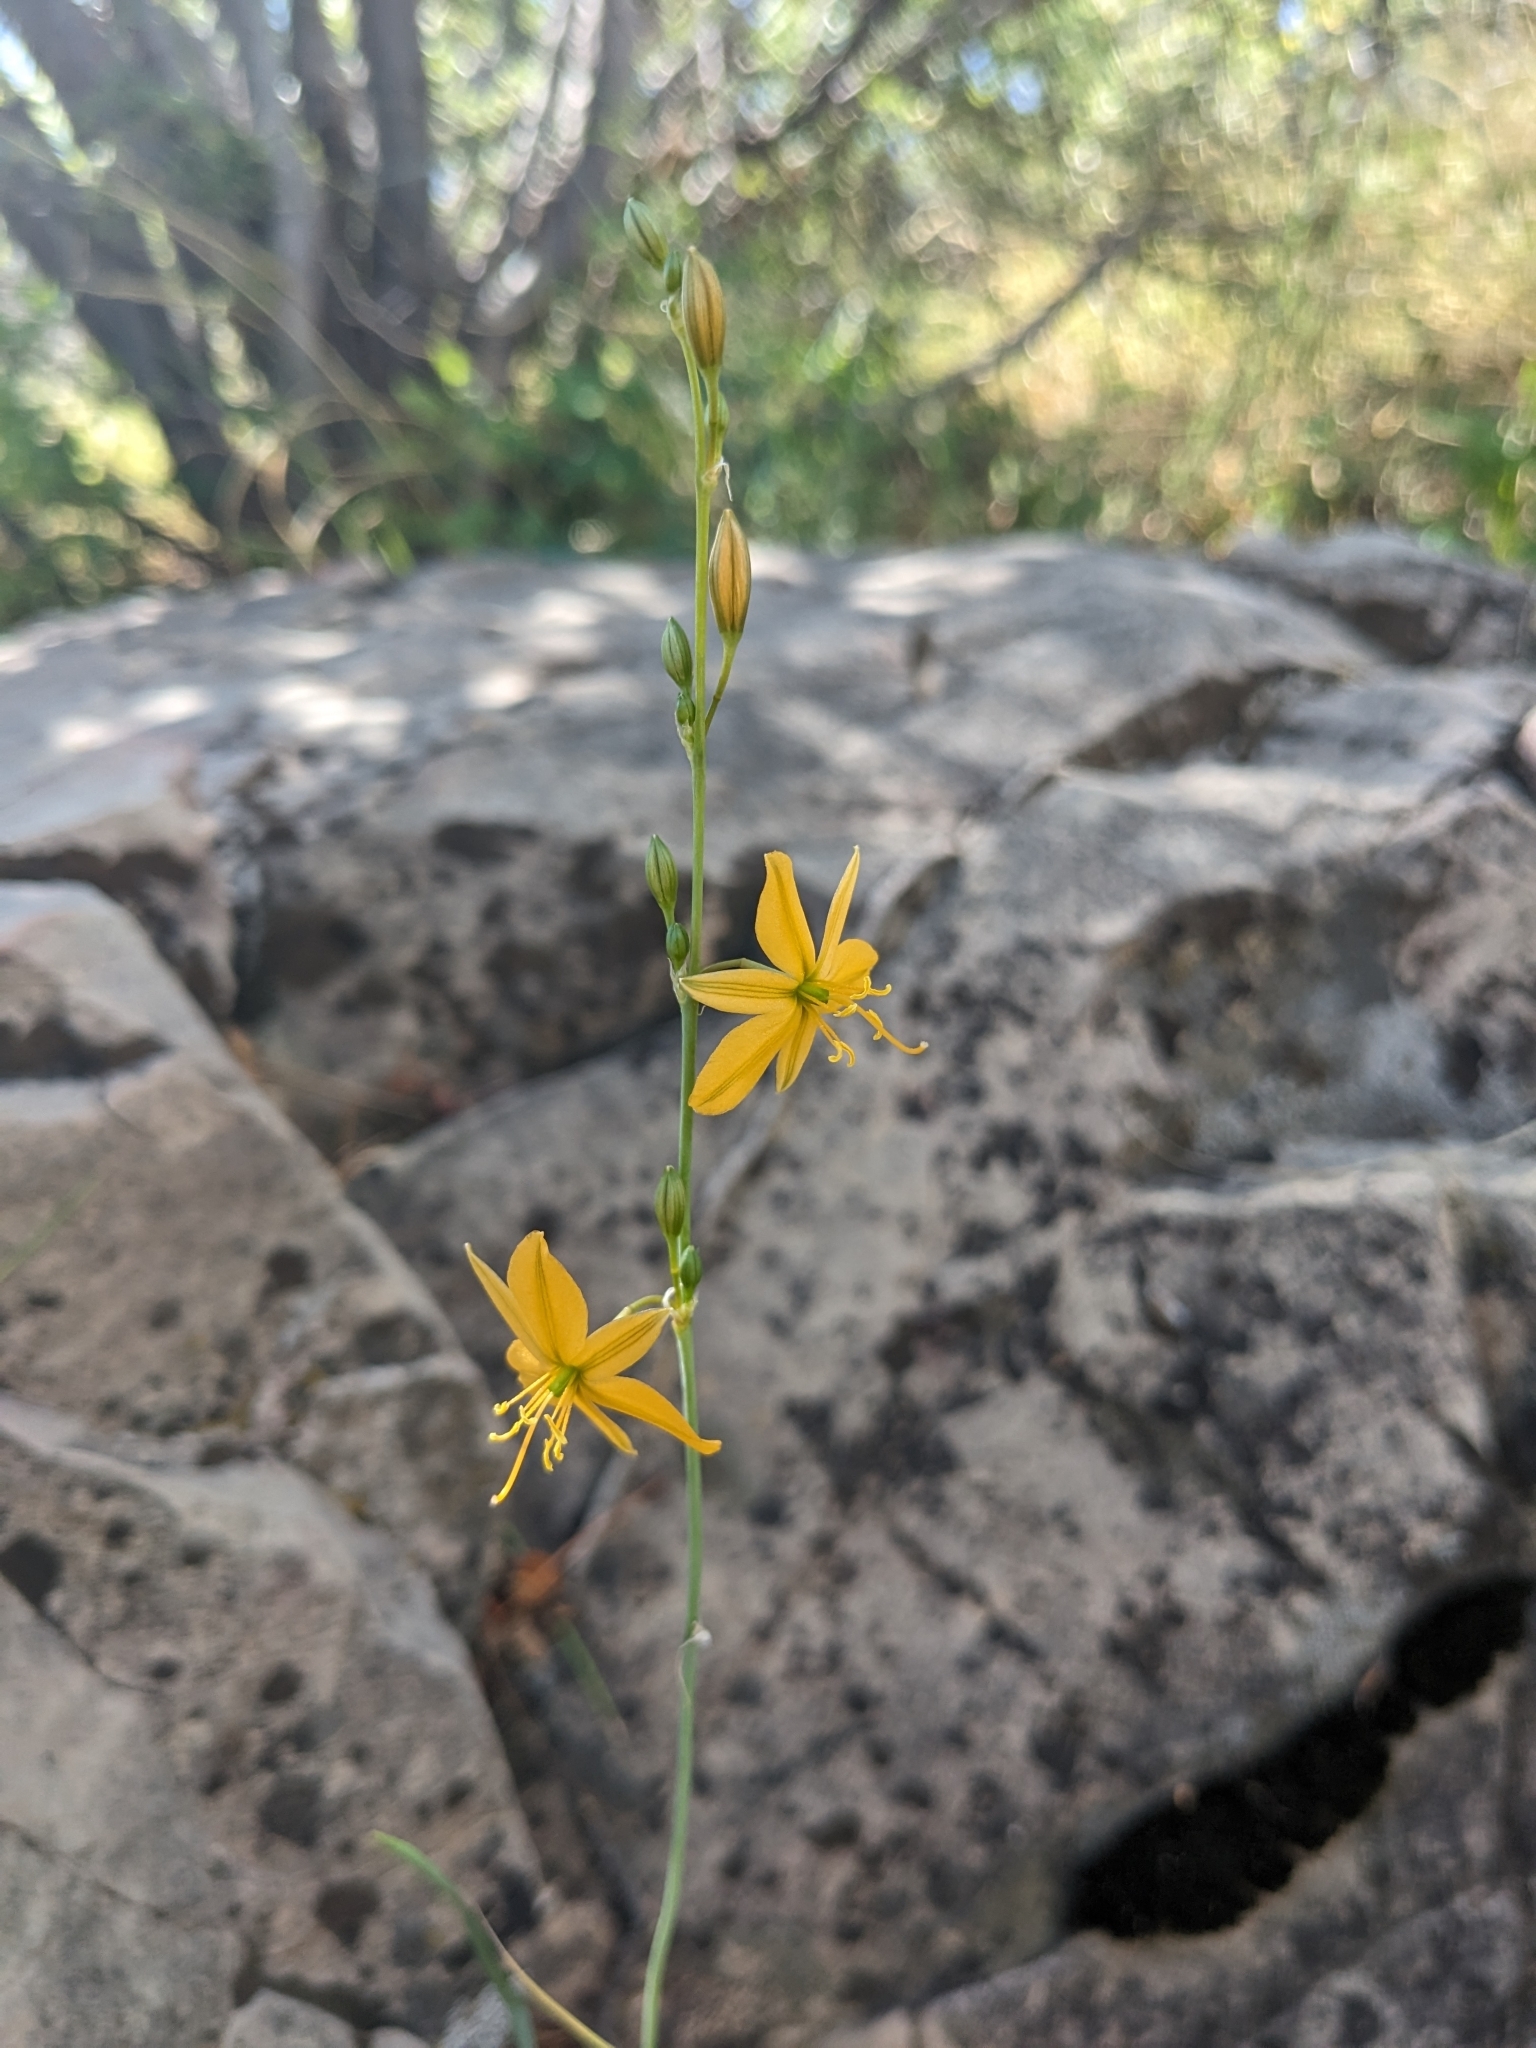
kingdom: Plantae
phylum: Tracheophyta
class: Liliopsida
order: Asparagales
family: Asparagaceae
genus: Echeandia
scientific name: Echeandia flavescens
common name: Amberlily
